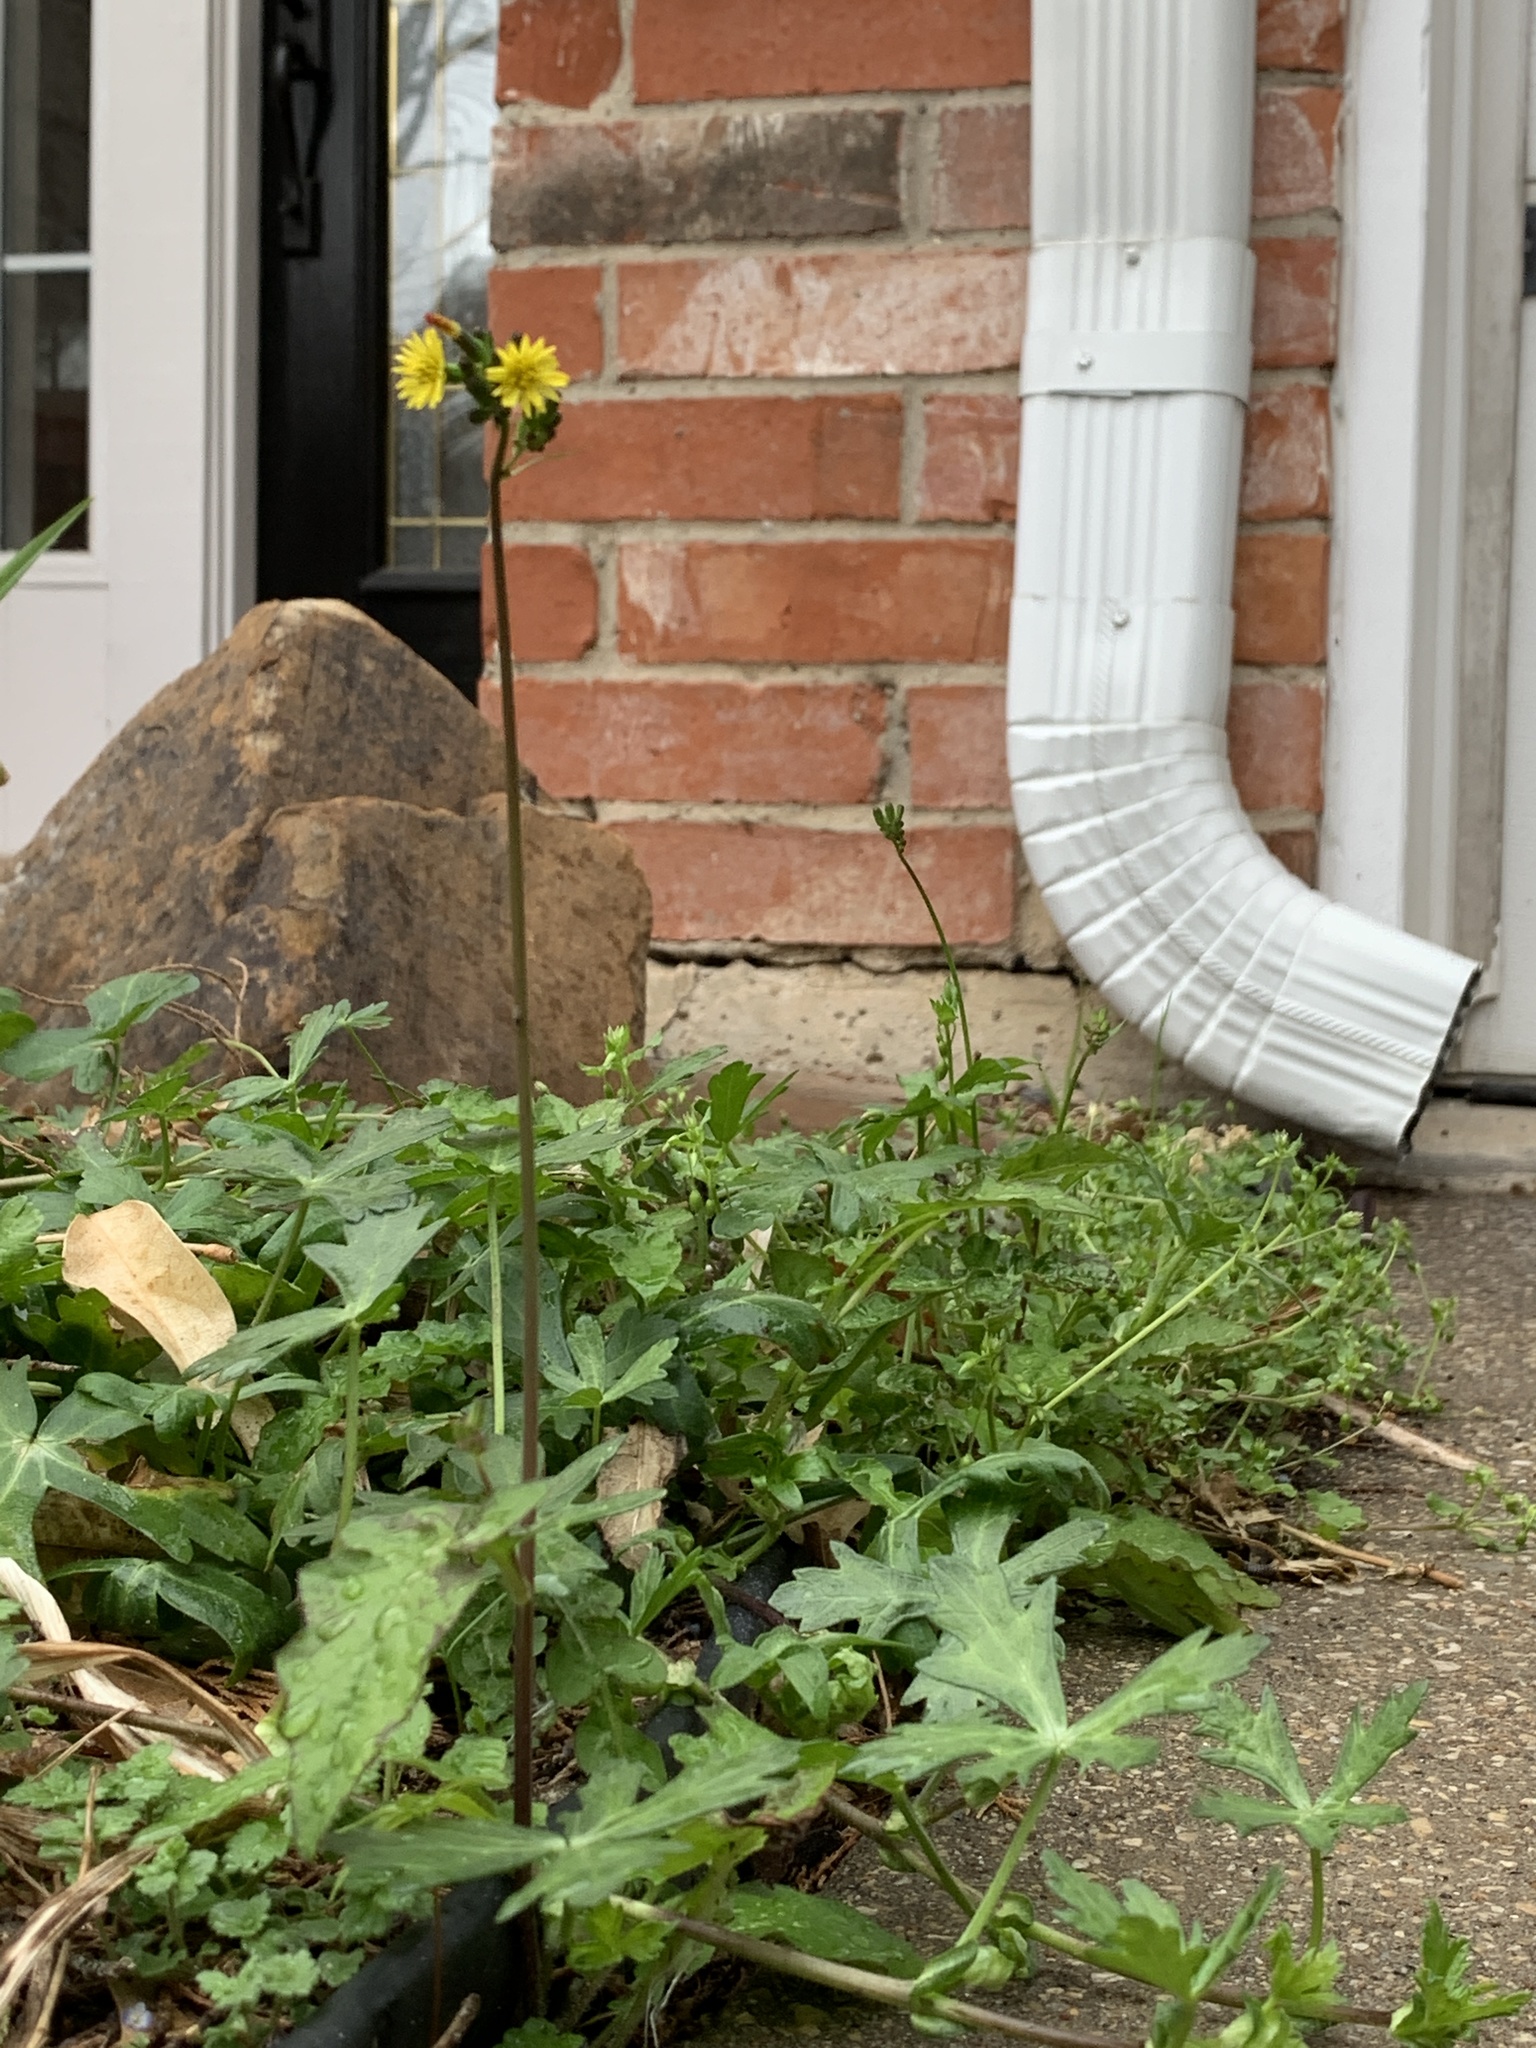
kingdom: Plantae
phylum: Tracheophyta
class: Magnoliopsida
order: Asterales
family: Asteraceae
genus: Youngia
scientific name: Youngia japonica
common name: Oriental false hawksbeard
